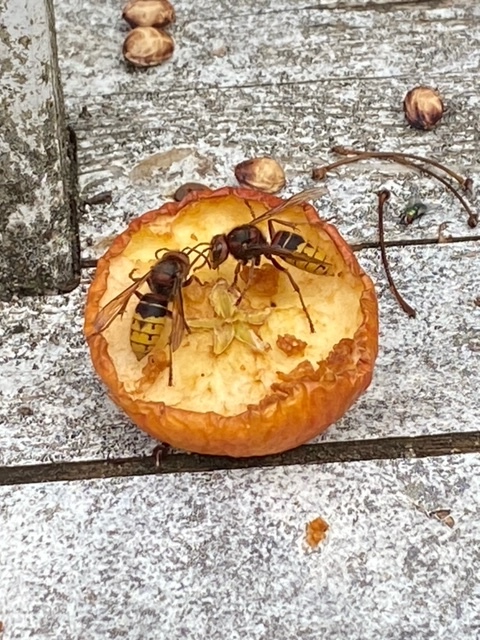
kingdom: Animalia
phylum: Arthropoda
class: Insecta
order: Hymenoptera
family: Vespidae
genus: Vespa
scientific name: Vespa crabro
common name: Hornet
